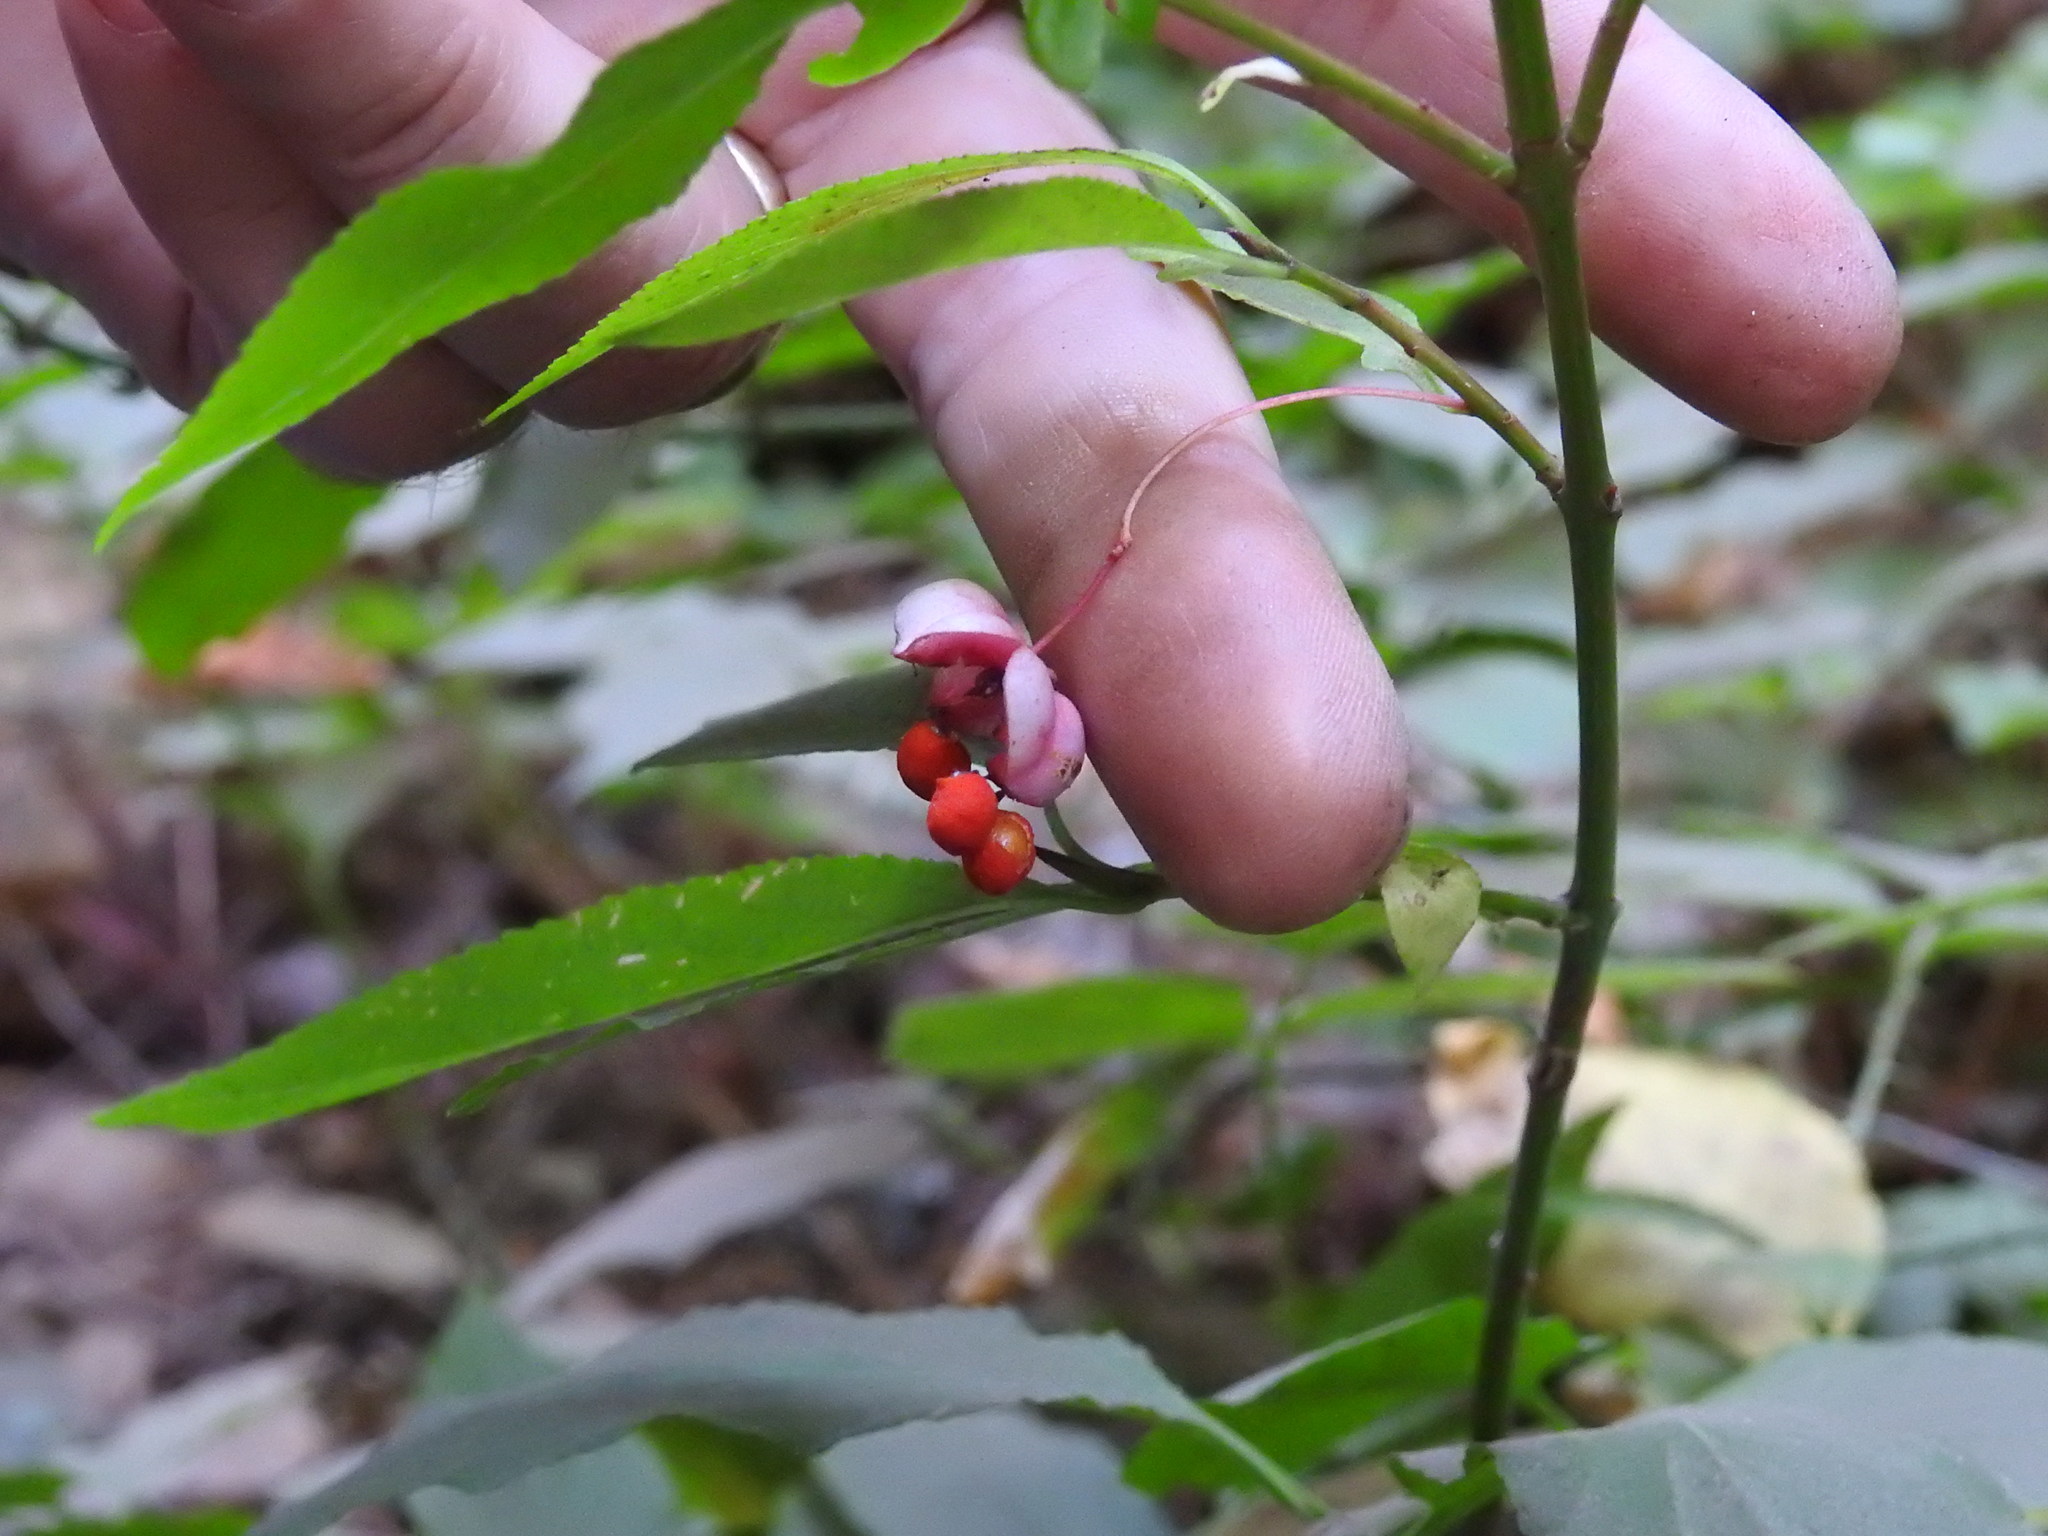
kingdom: Plantae
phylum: Tracheophyta
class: Magnoliopsida
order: Celastrales
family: Celastraceae
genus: Euonymus
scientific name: Euonymus occidentalis
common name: Western burningbush
